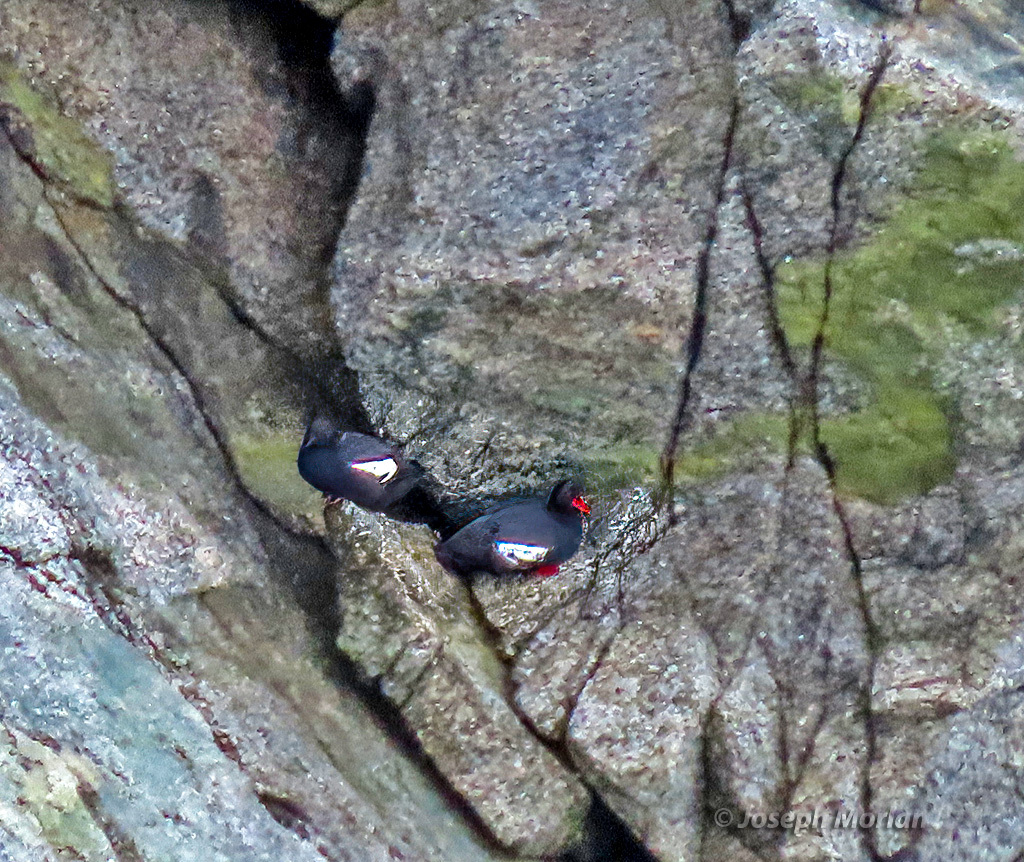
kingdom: Animalia
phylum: Chordata
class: Aves
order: Charadriiformes
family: Alcidae
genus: Cepphus
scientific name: Cepphus columba
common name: Pigeon guillemot
